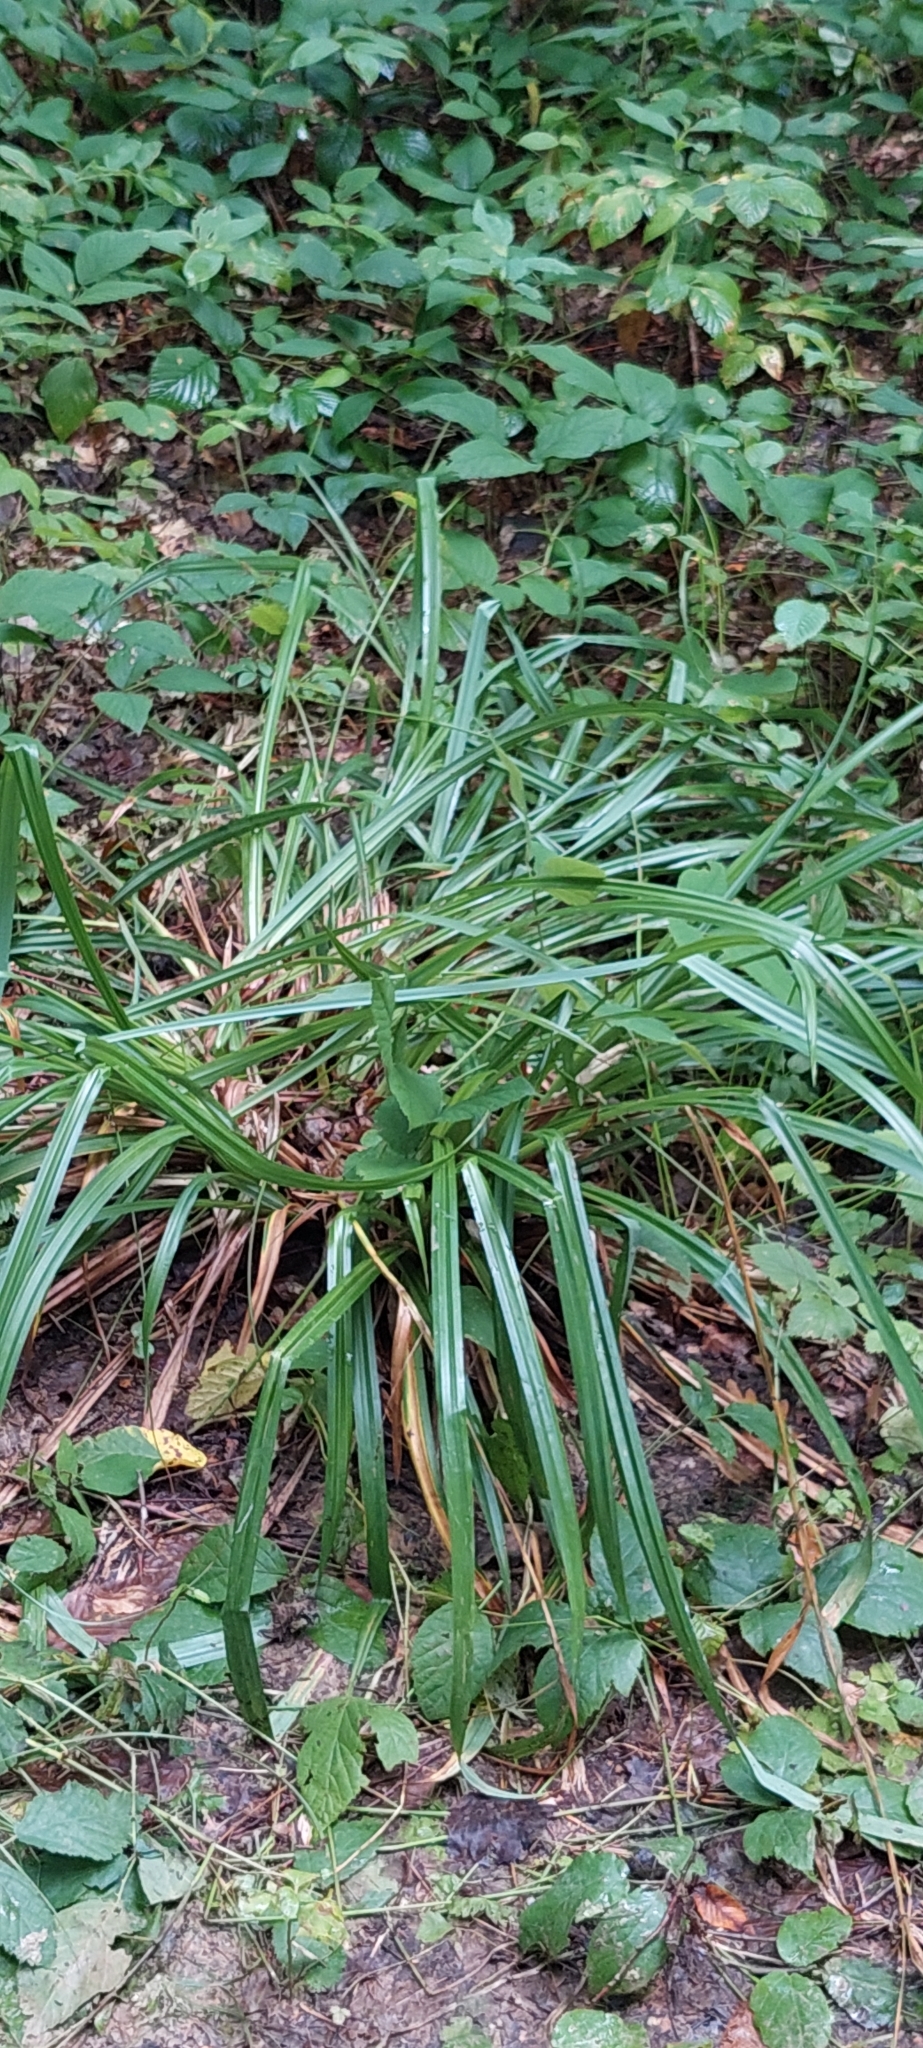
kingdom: Plantae
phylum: Tracheophyta
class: Liliopsida
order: Poales
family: Cyperaceae
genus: Carex
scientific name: Carex pendula
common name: Pendulous sedge
